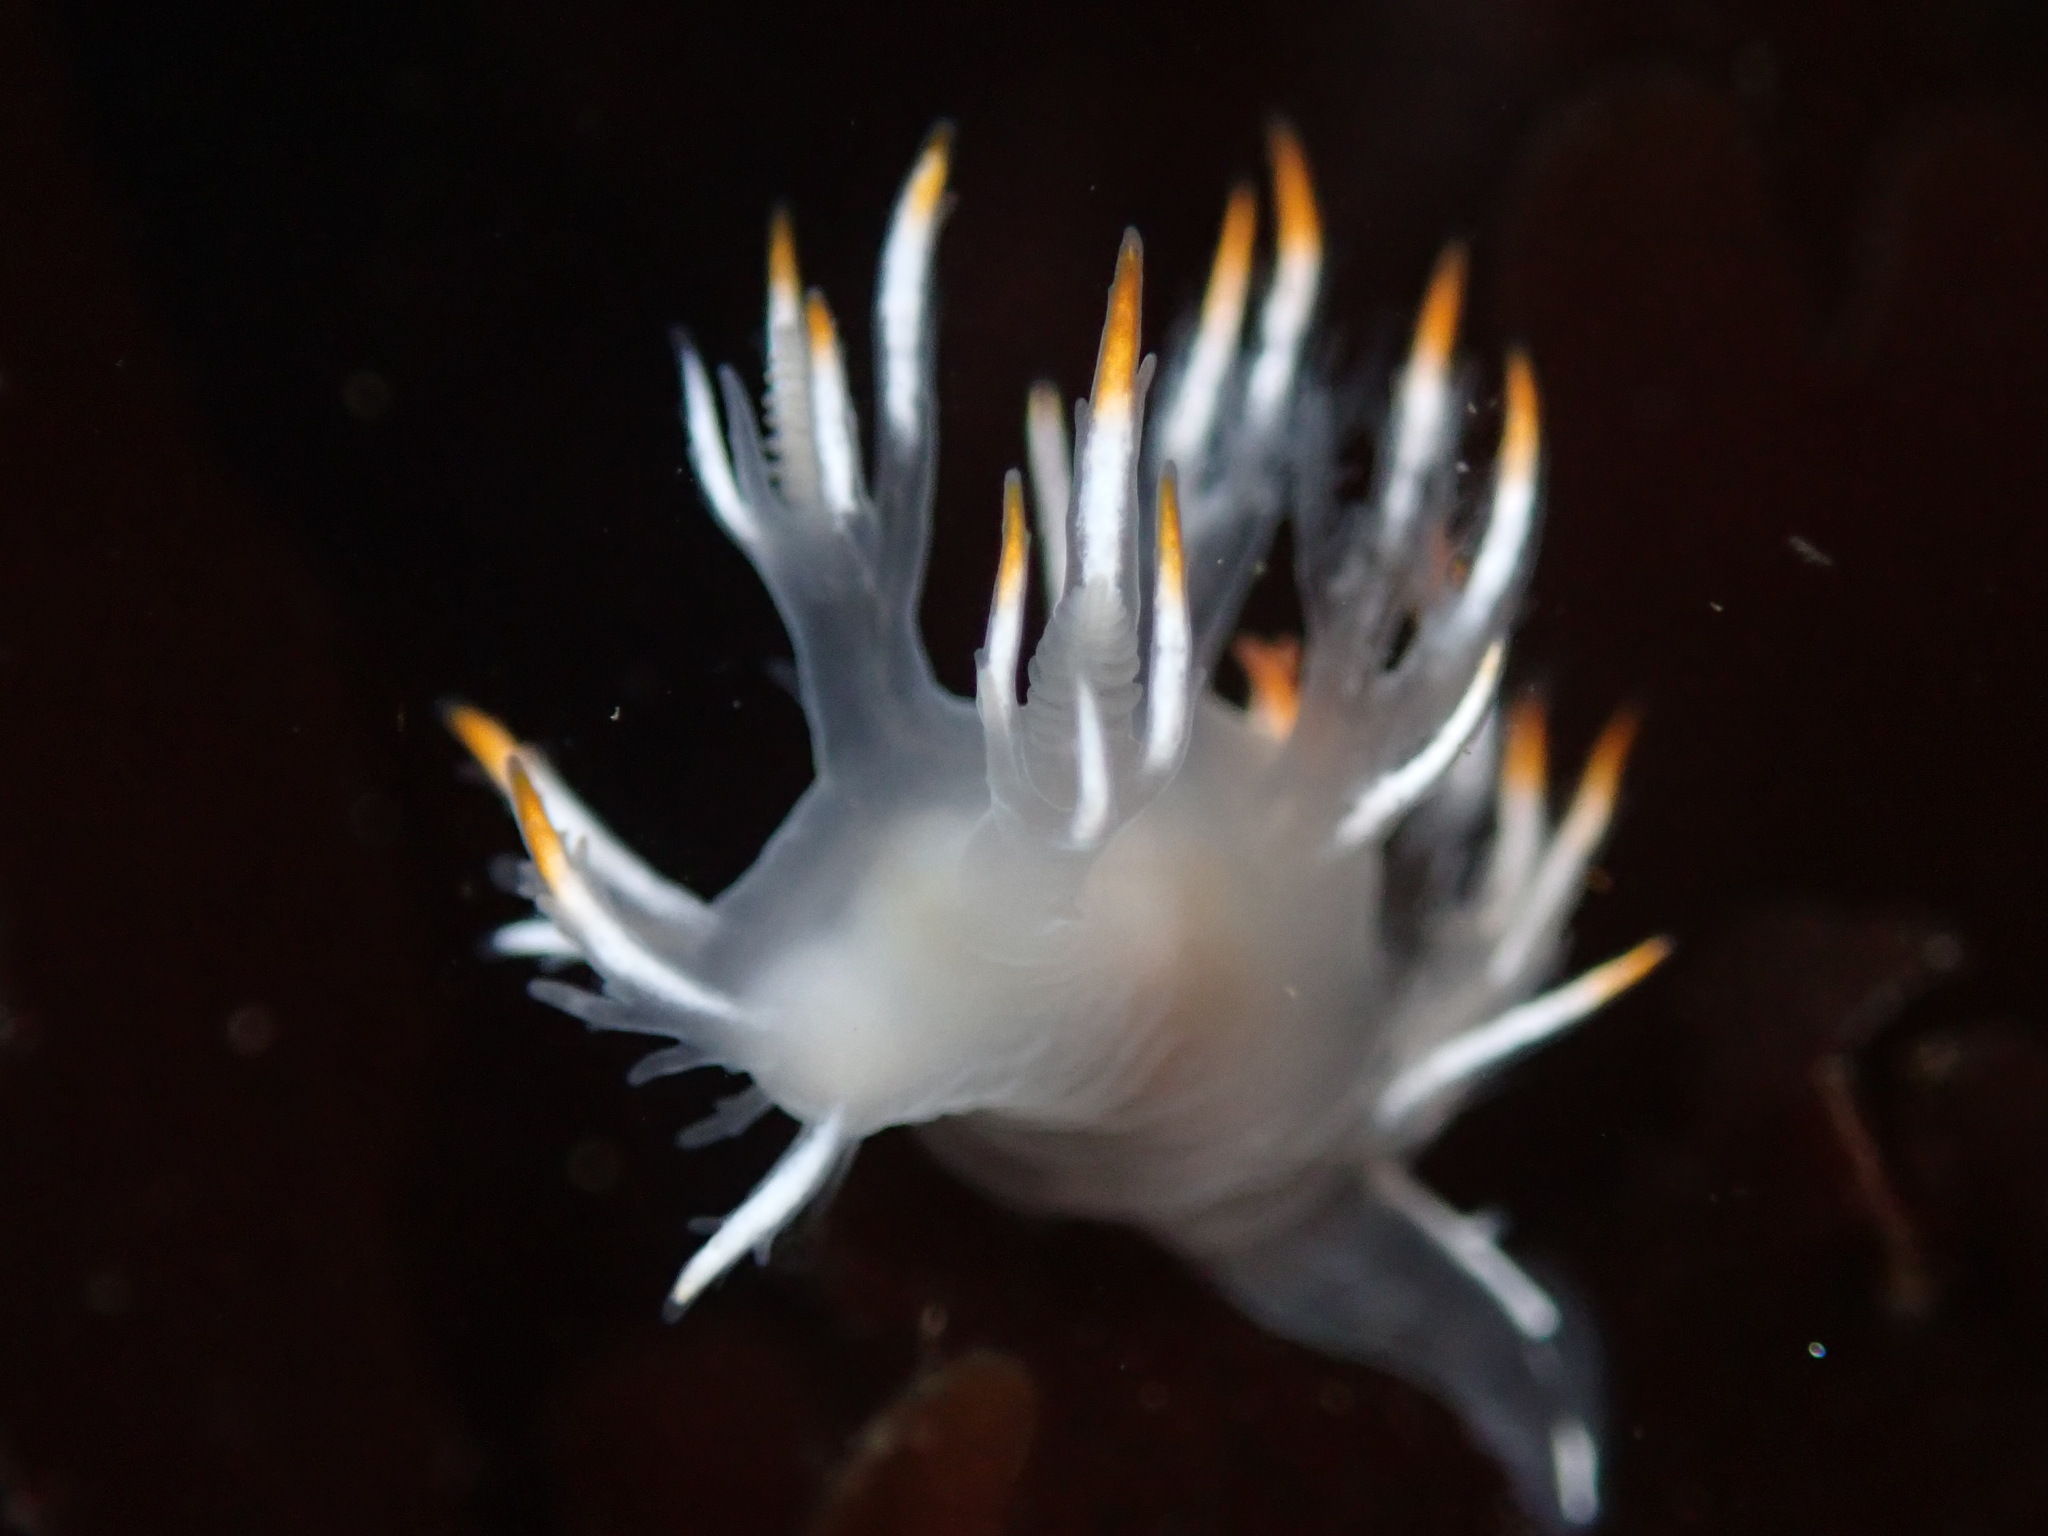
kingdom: Animalia
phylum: Mollusca
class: Gastropoda
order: Nudibranchia
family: Dendronotidae
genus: Dendronotus
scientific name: Dendronotus albus
